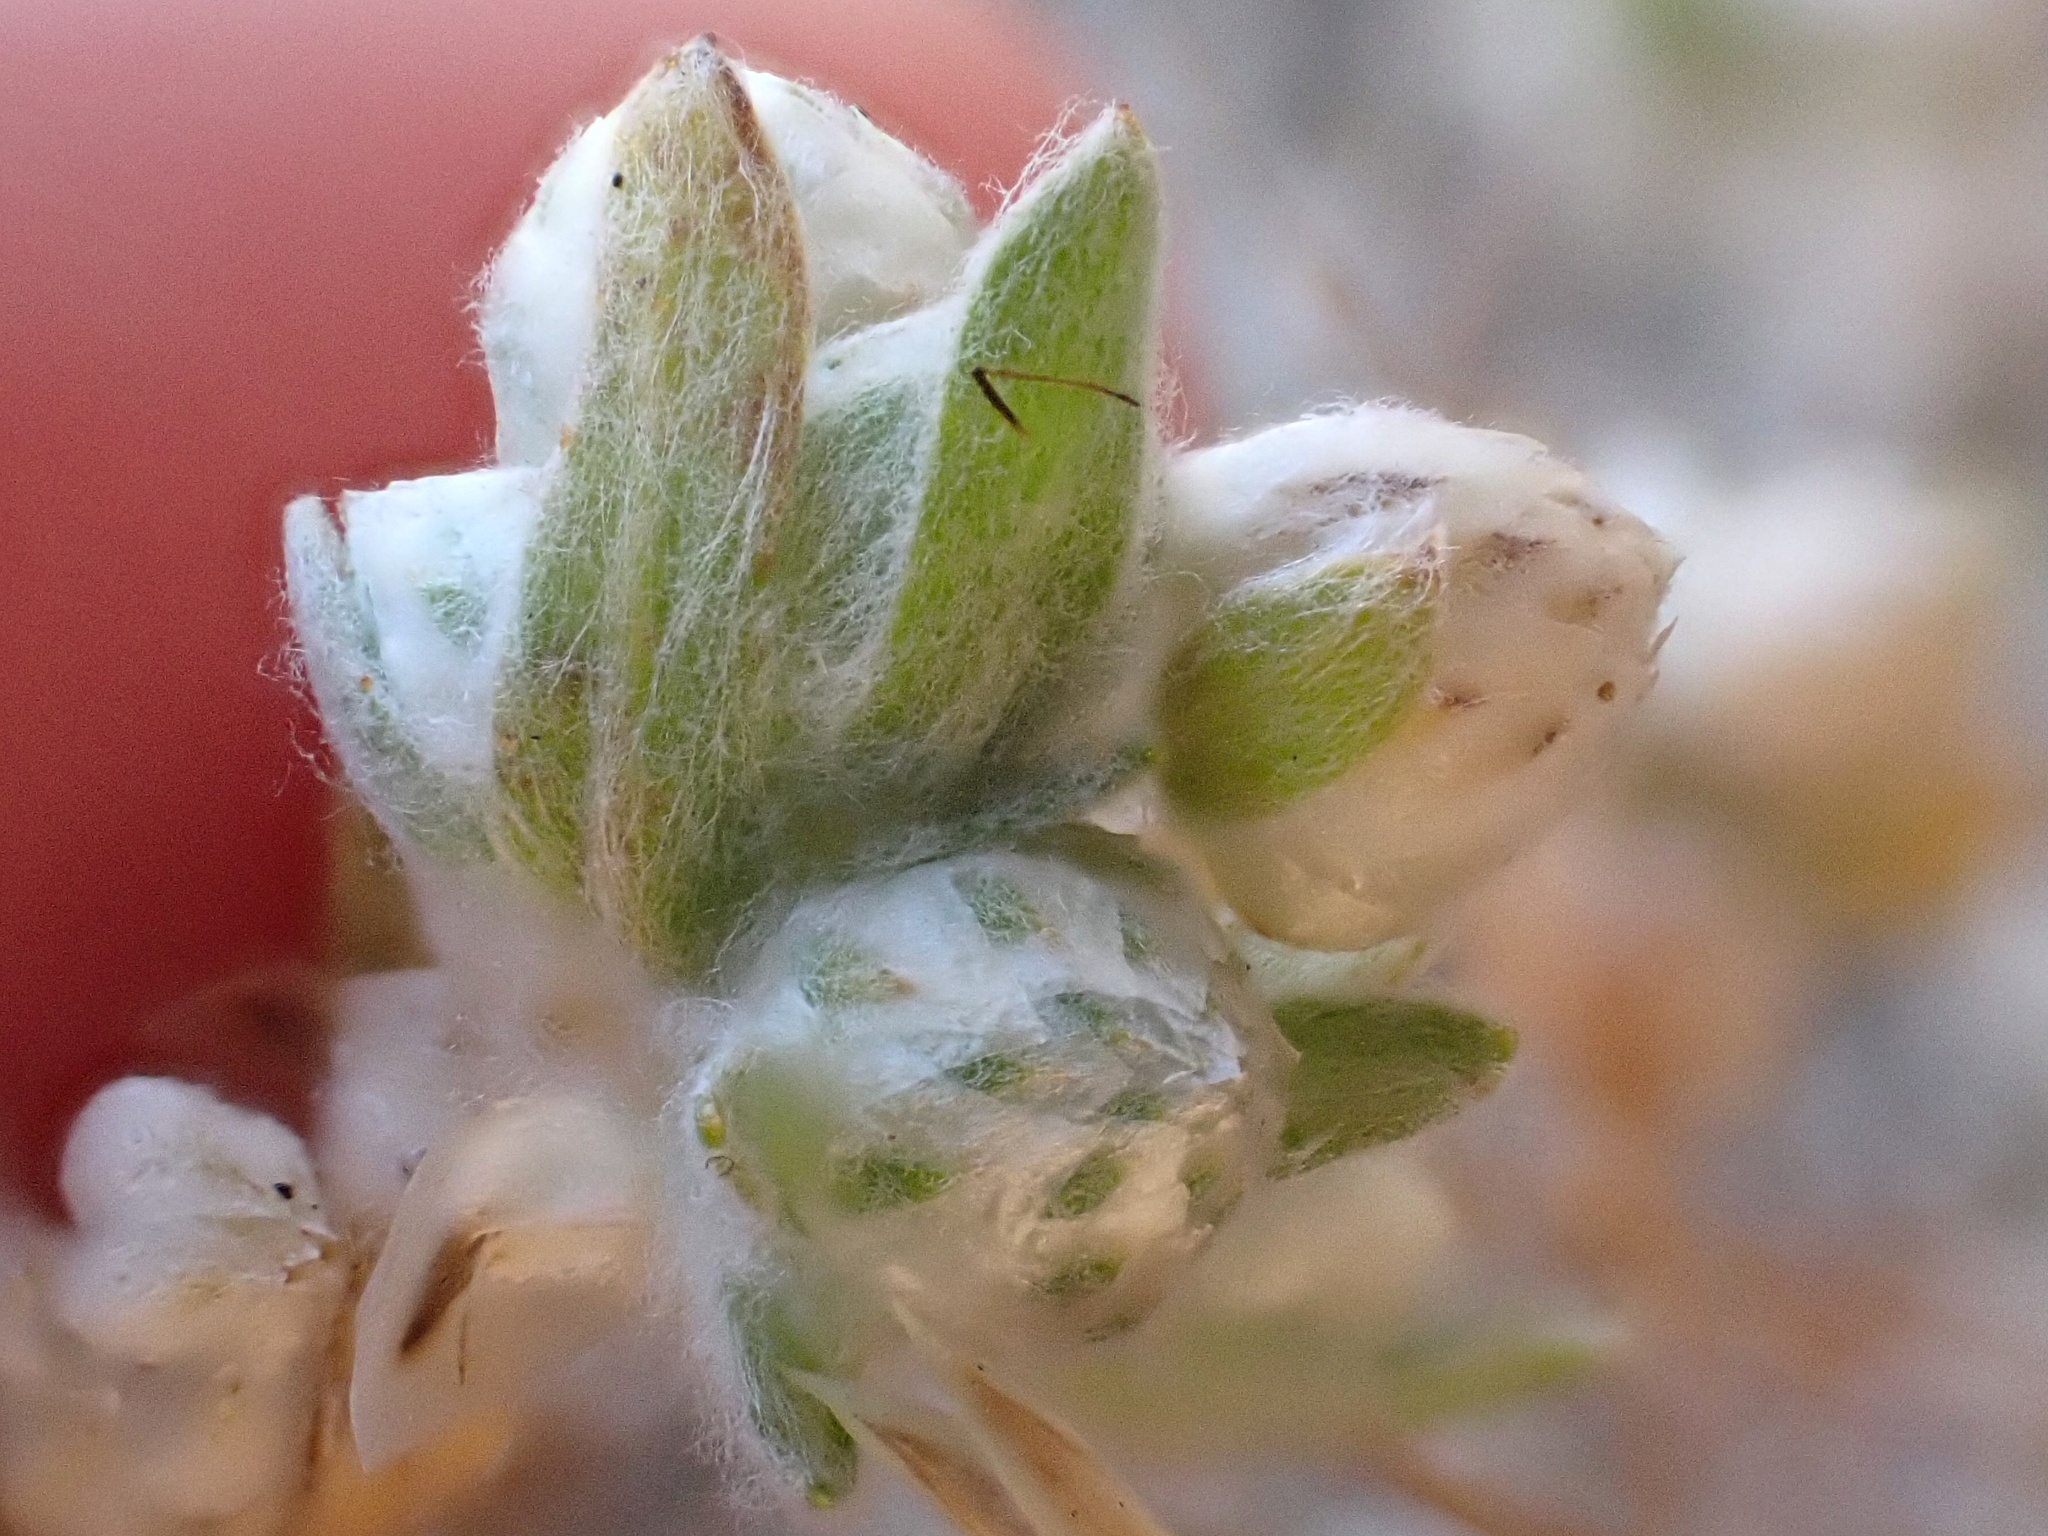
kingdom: Plantae
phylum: Tracheophyta
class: Magnoliopsida
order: Asterales
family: Asteraceae
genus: Stylocline
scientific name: Stylocline gnaphaloides
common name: Everlasting nest-straw
